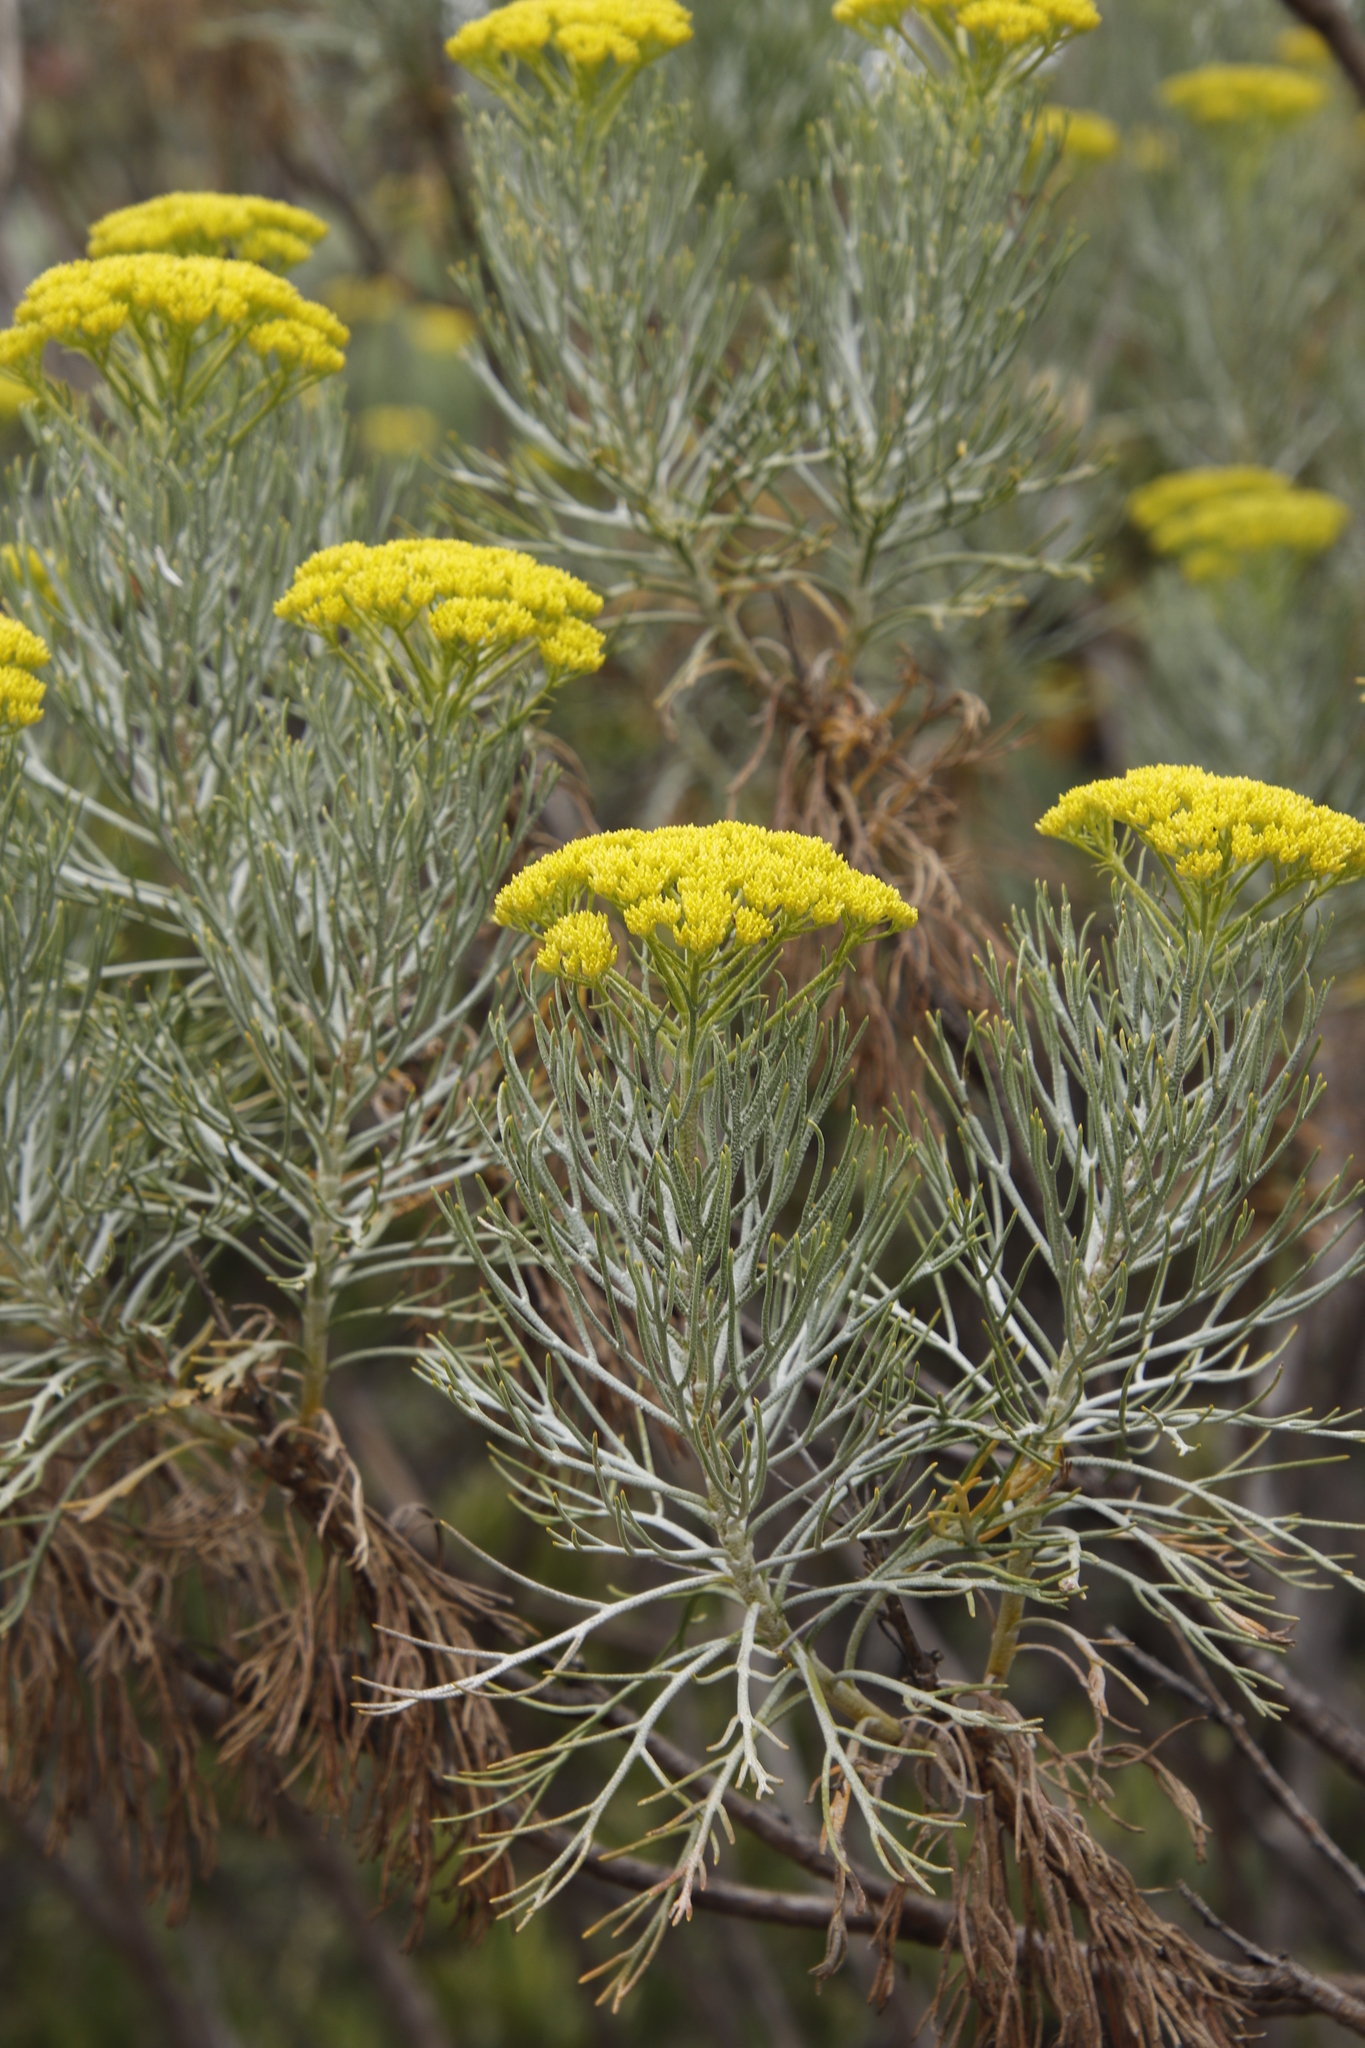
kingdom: Plantae
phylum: Tracheophyta
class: Magnoliopsida
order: Asterales
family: Asteraceae
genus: Hymenolepis
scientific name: Hymenolepis crithmifolia
